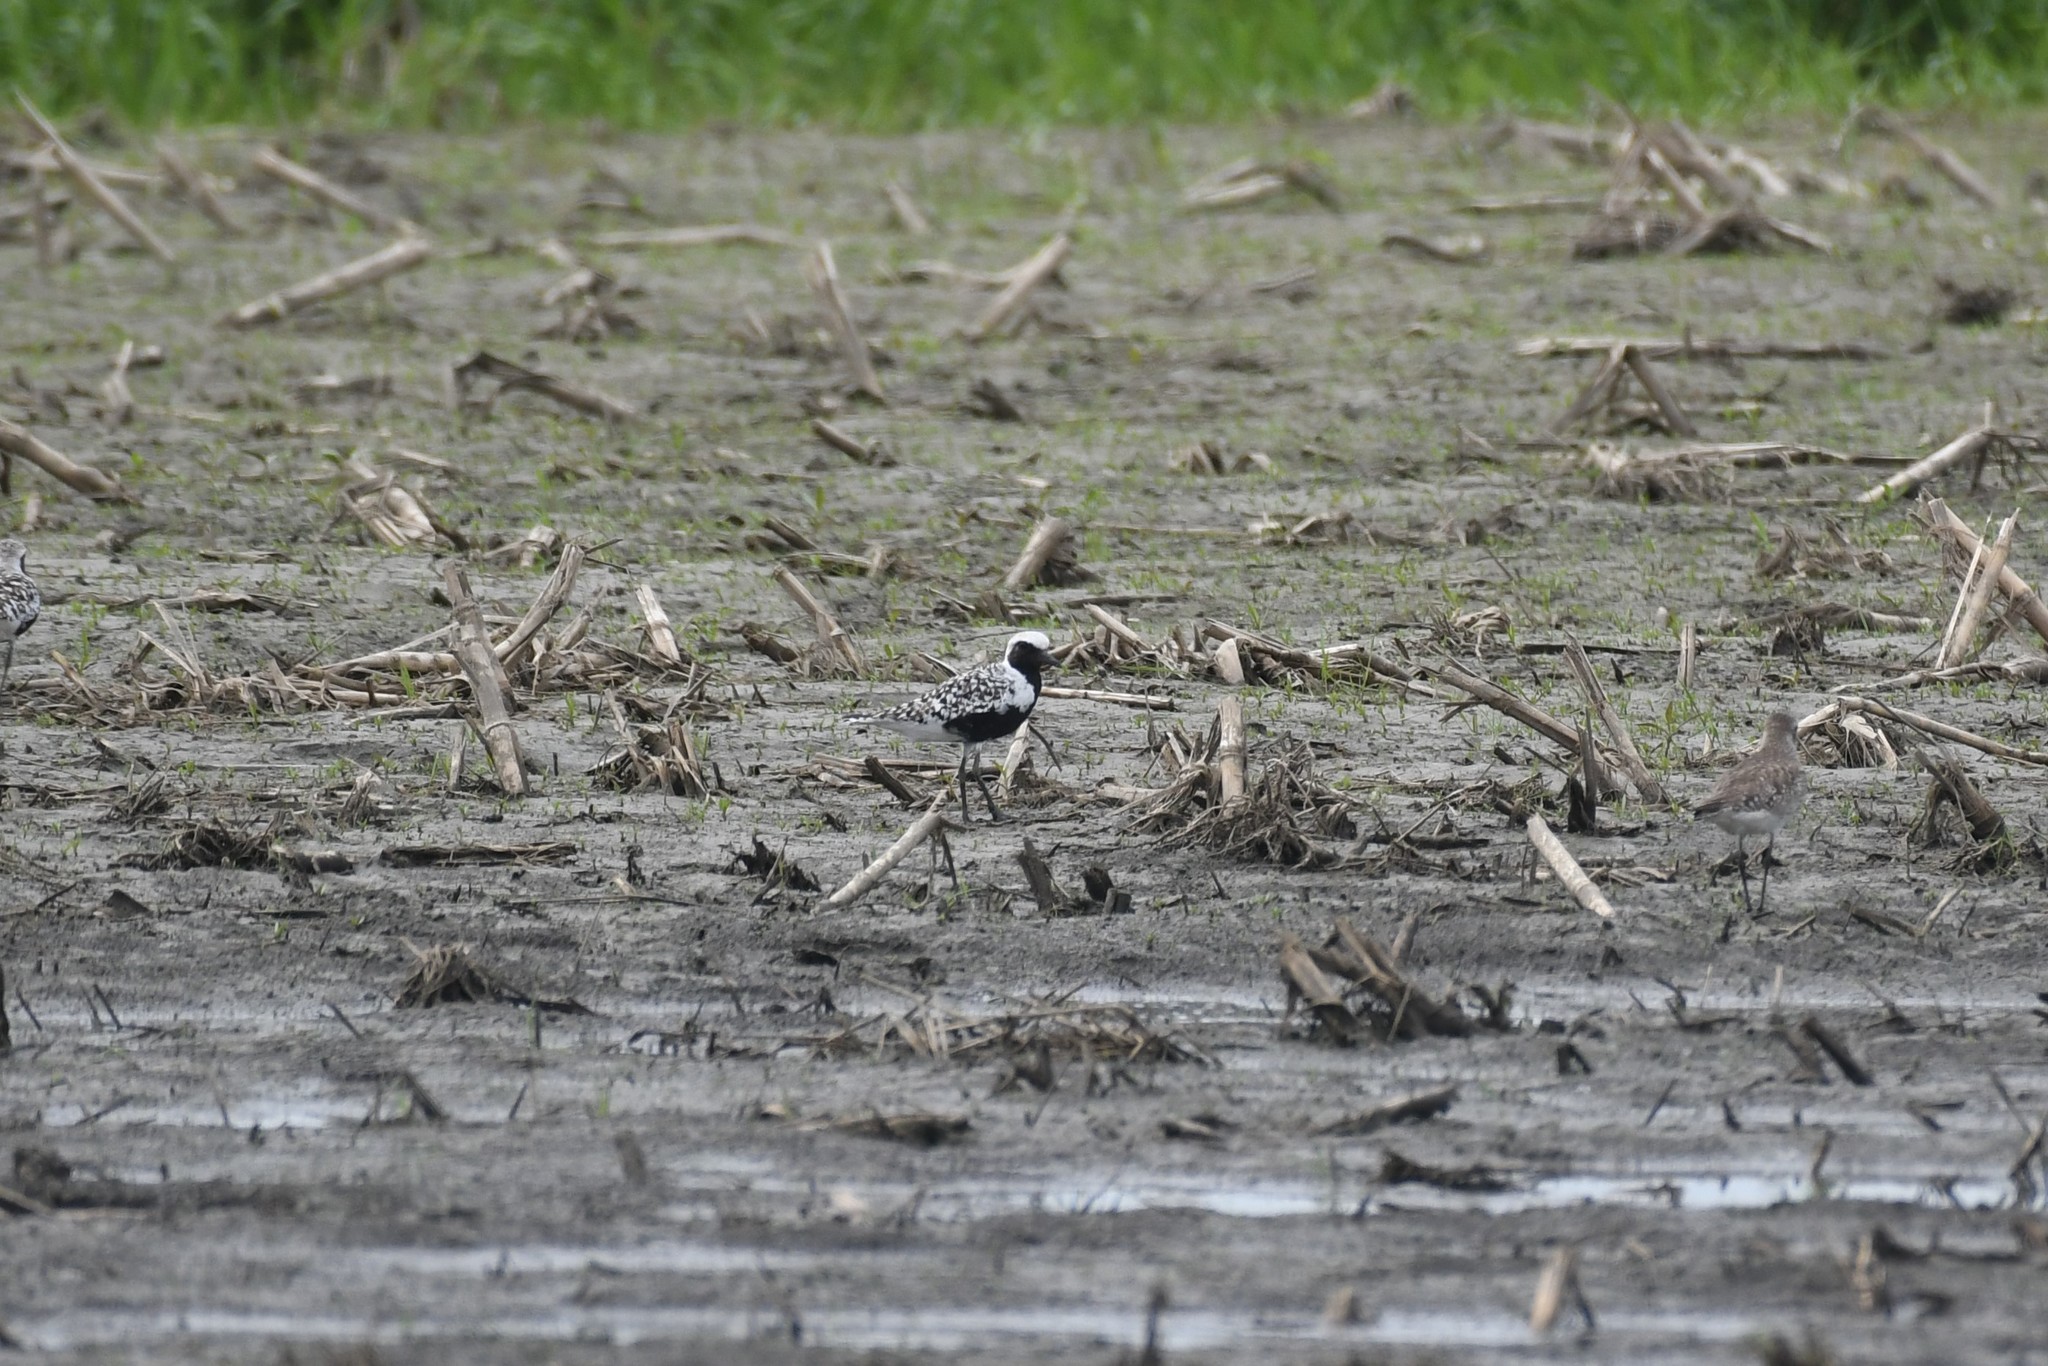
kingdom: Animalia
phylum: Chordata
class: Aves
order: Charadriiformes
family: Charadriidae
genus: Pluvialis
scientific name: Pluvialis squatarola
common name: Grey plover
